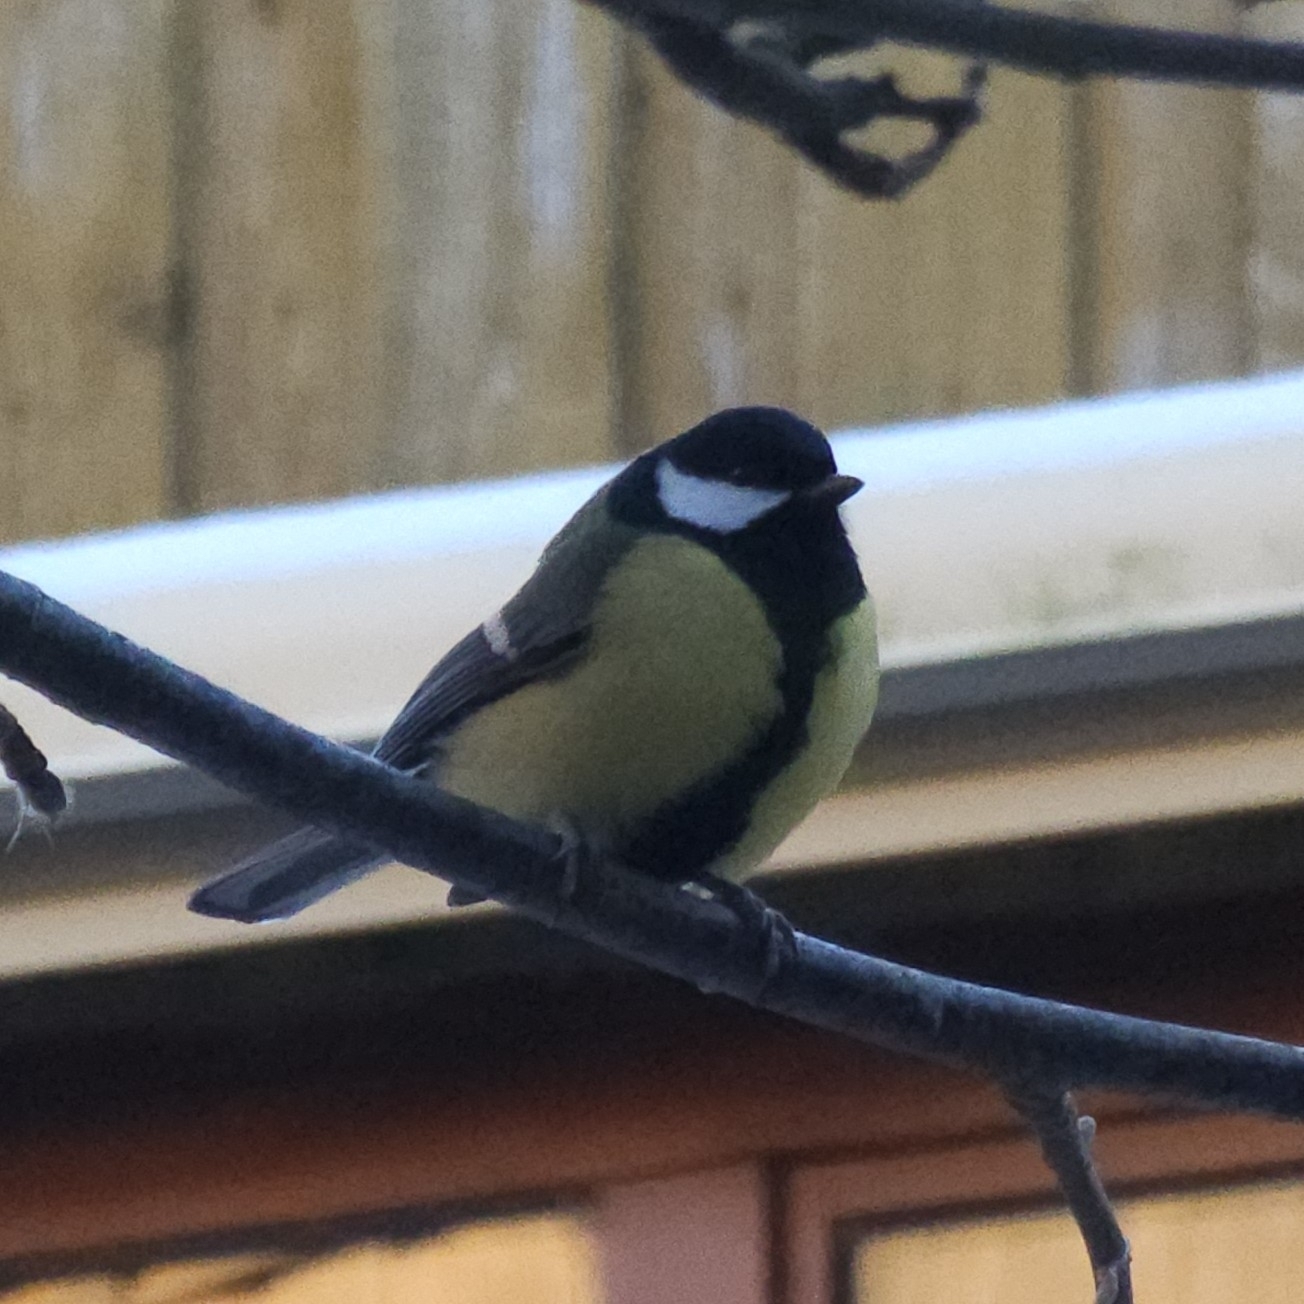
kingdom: Animalia
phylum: Chordata
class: Aves
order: Passeriformes
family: Paridae
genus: Parus
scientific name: Parus major
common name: Great tit
